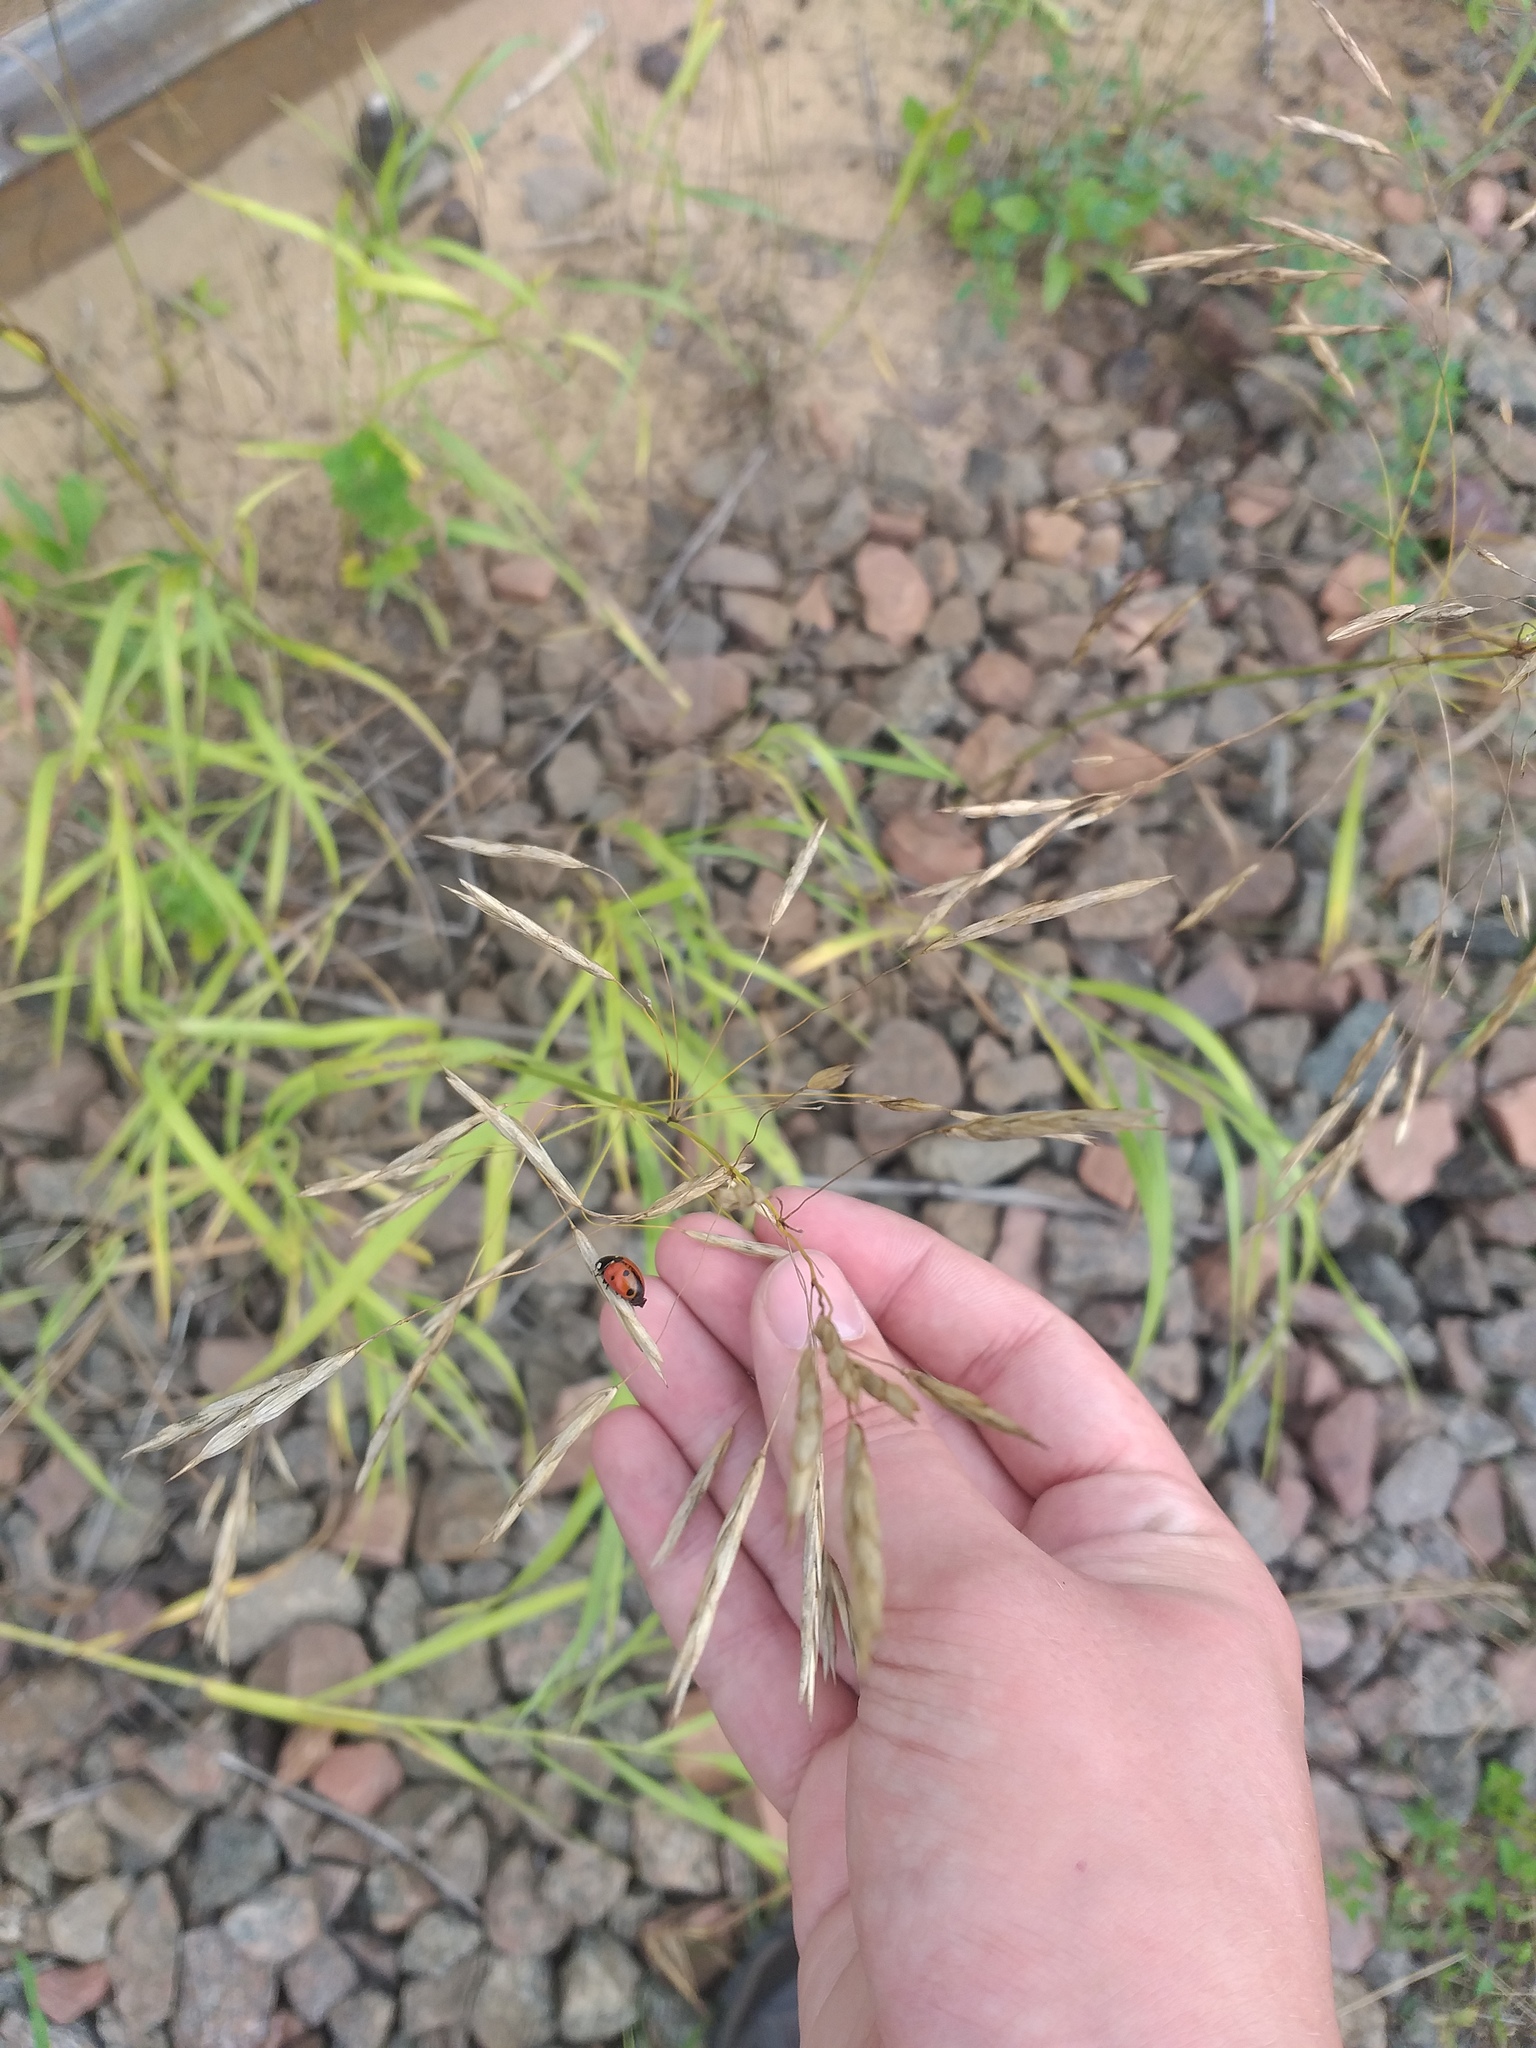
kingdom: Plantae
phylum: Tracheophyta
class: Liliopsida
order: Poales
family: Poaceae
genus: Bromus
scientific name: Bromus inermis
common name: Smooth brome
